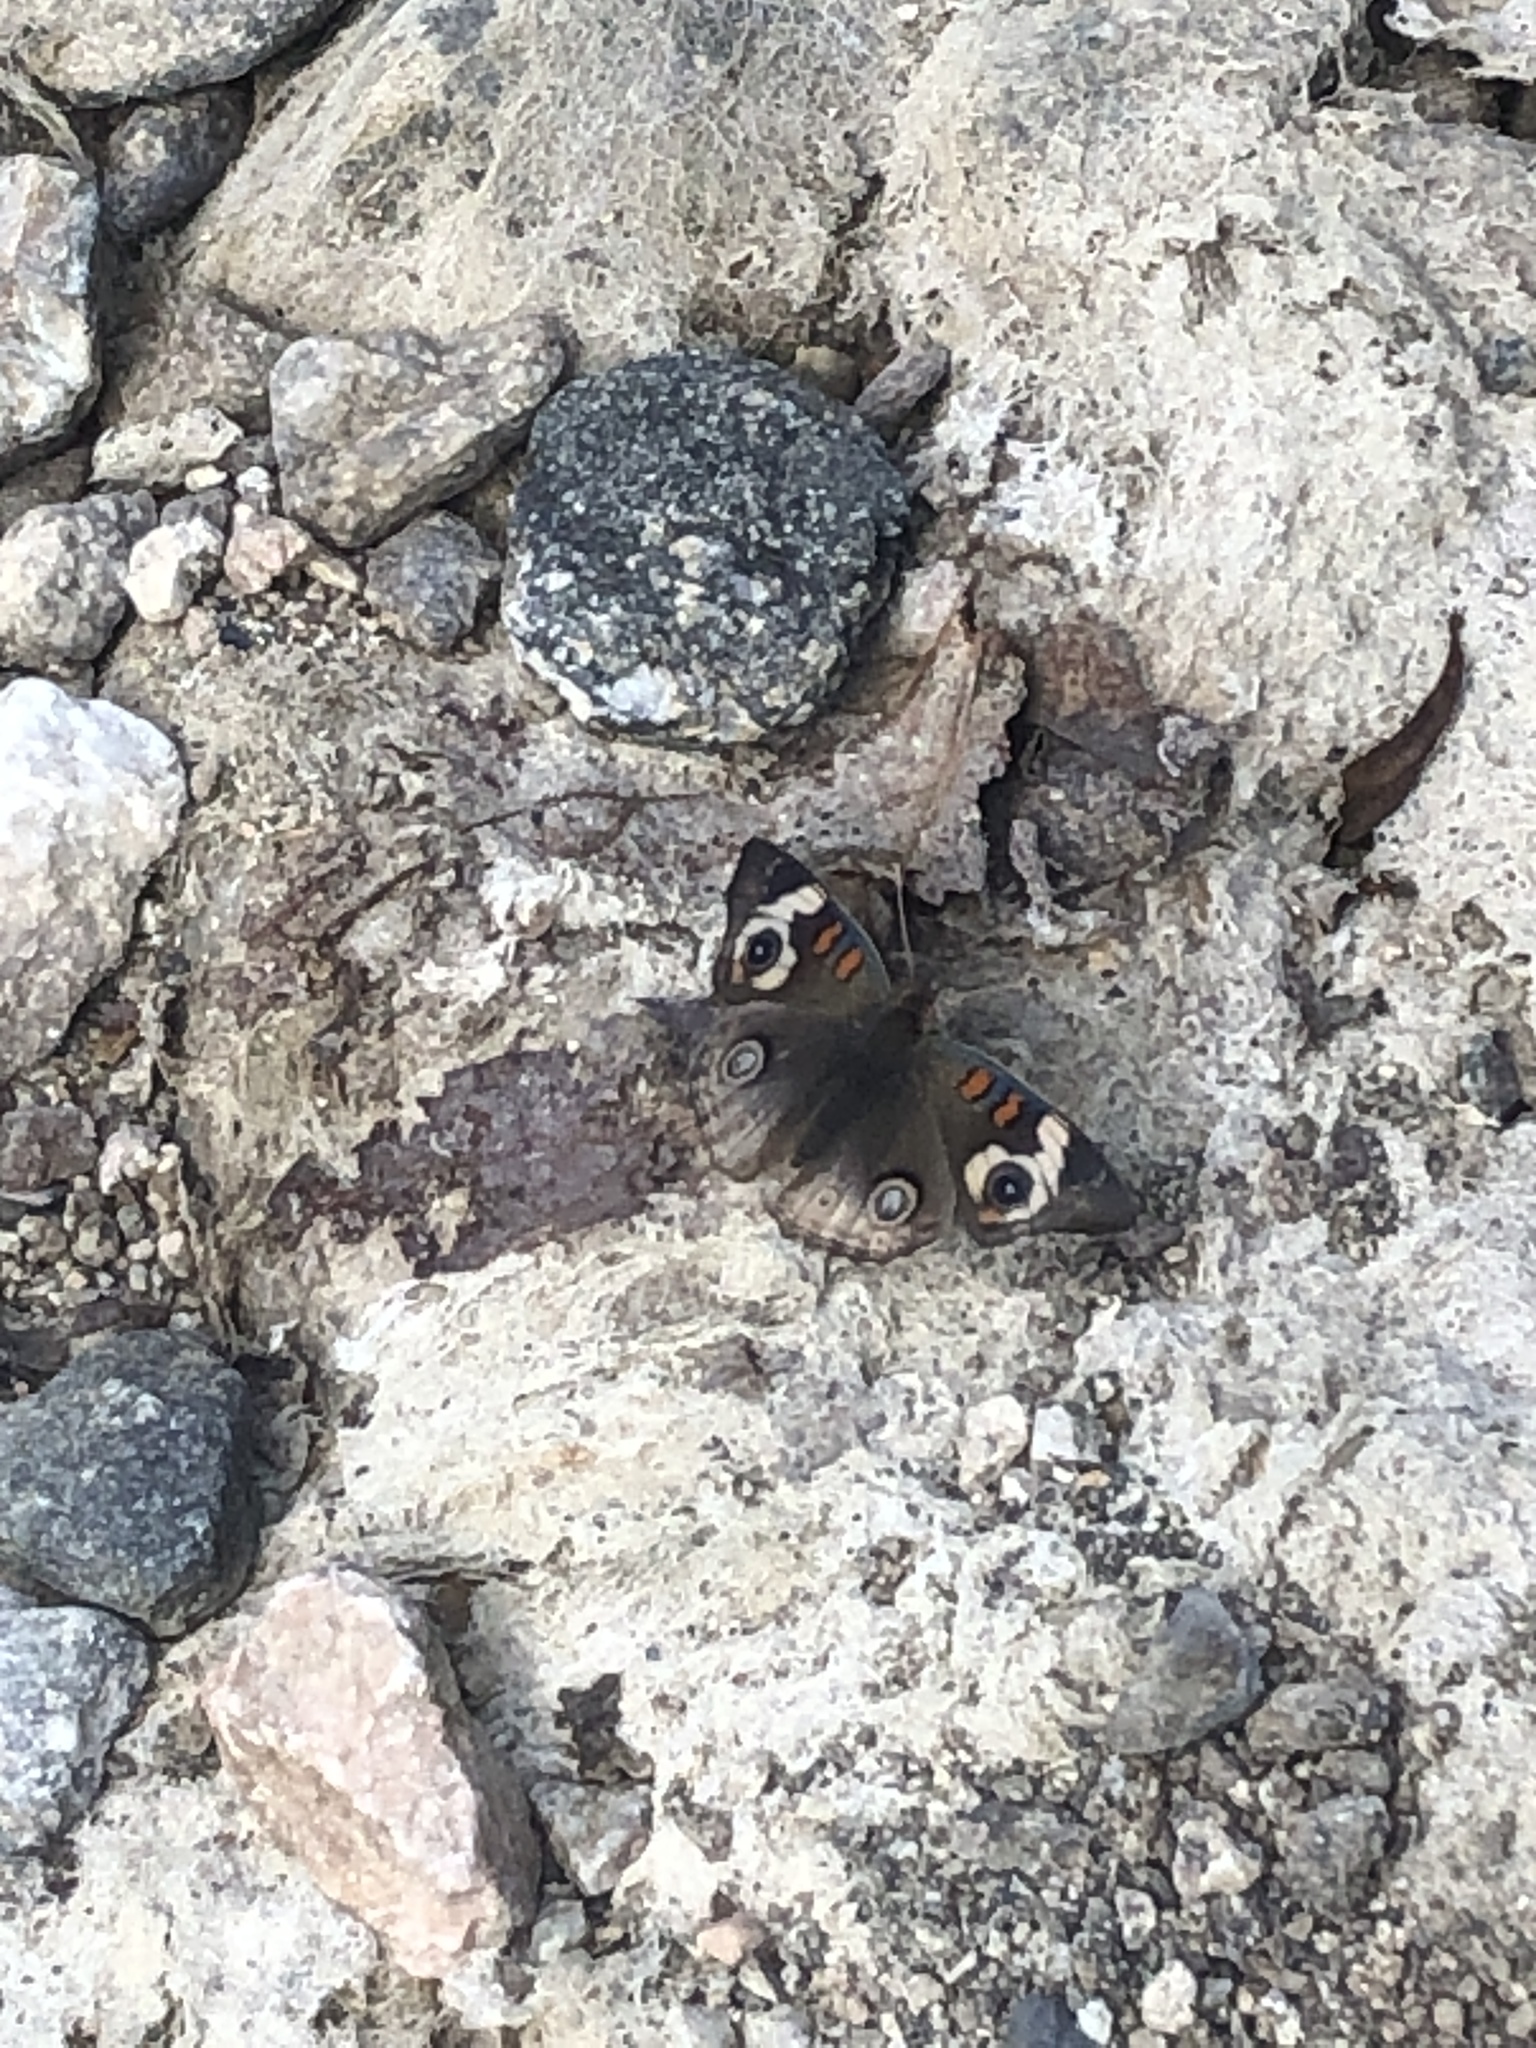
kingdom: Animalia
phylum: Arthropoda
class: Insecta
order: Lepidoptera
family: Nymphalidae
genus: Junonia
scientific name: Junonia grisea
